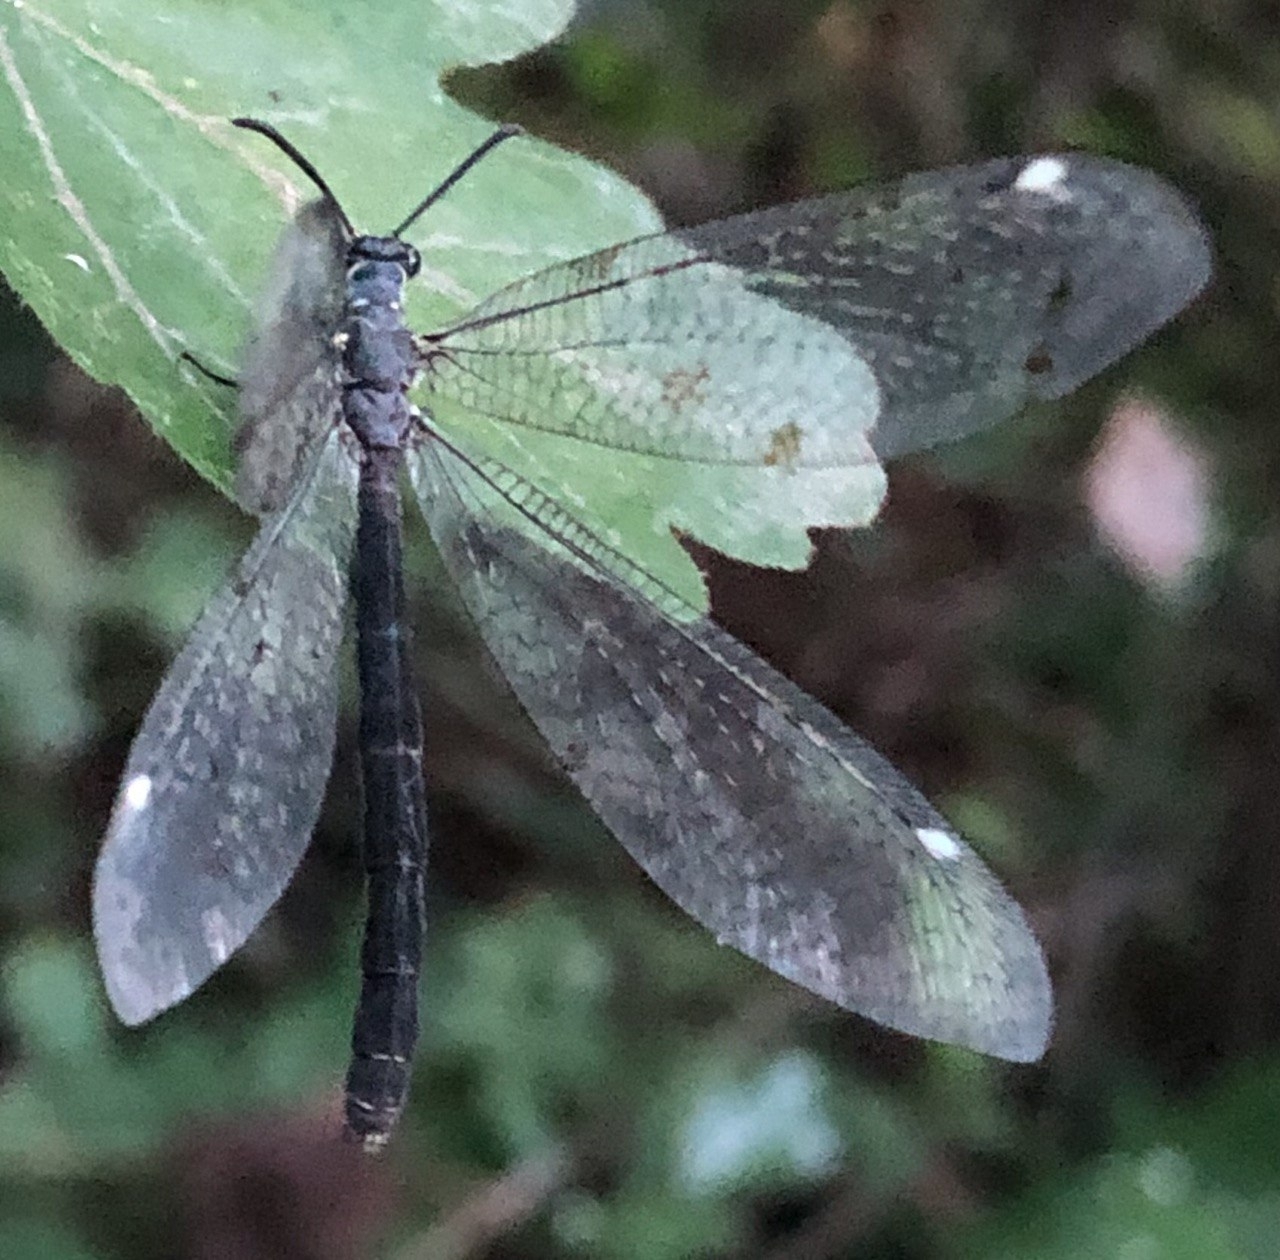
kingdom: Animalia
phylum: Arthropoda
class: Insecta
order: Neuroptera
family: Myrmeleontidae
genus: Myrmeleon
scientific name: Myrmeleon formicarius
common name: Ant-lion
